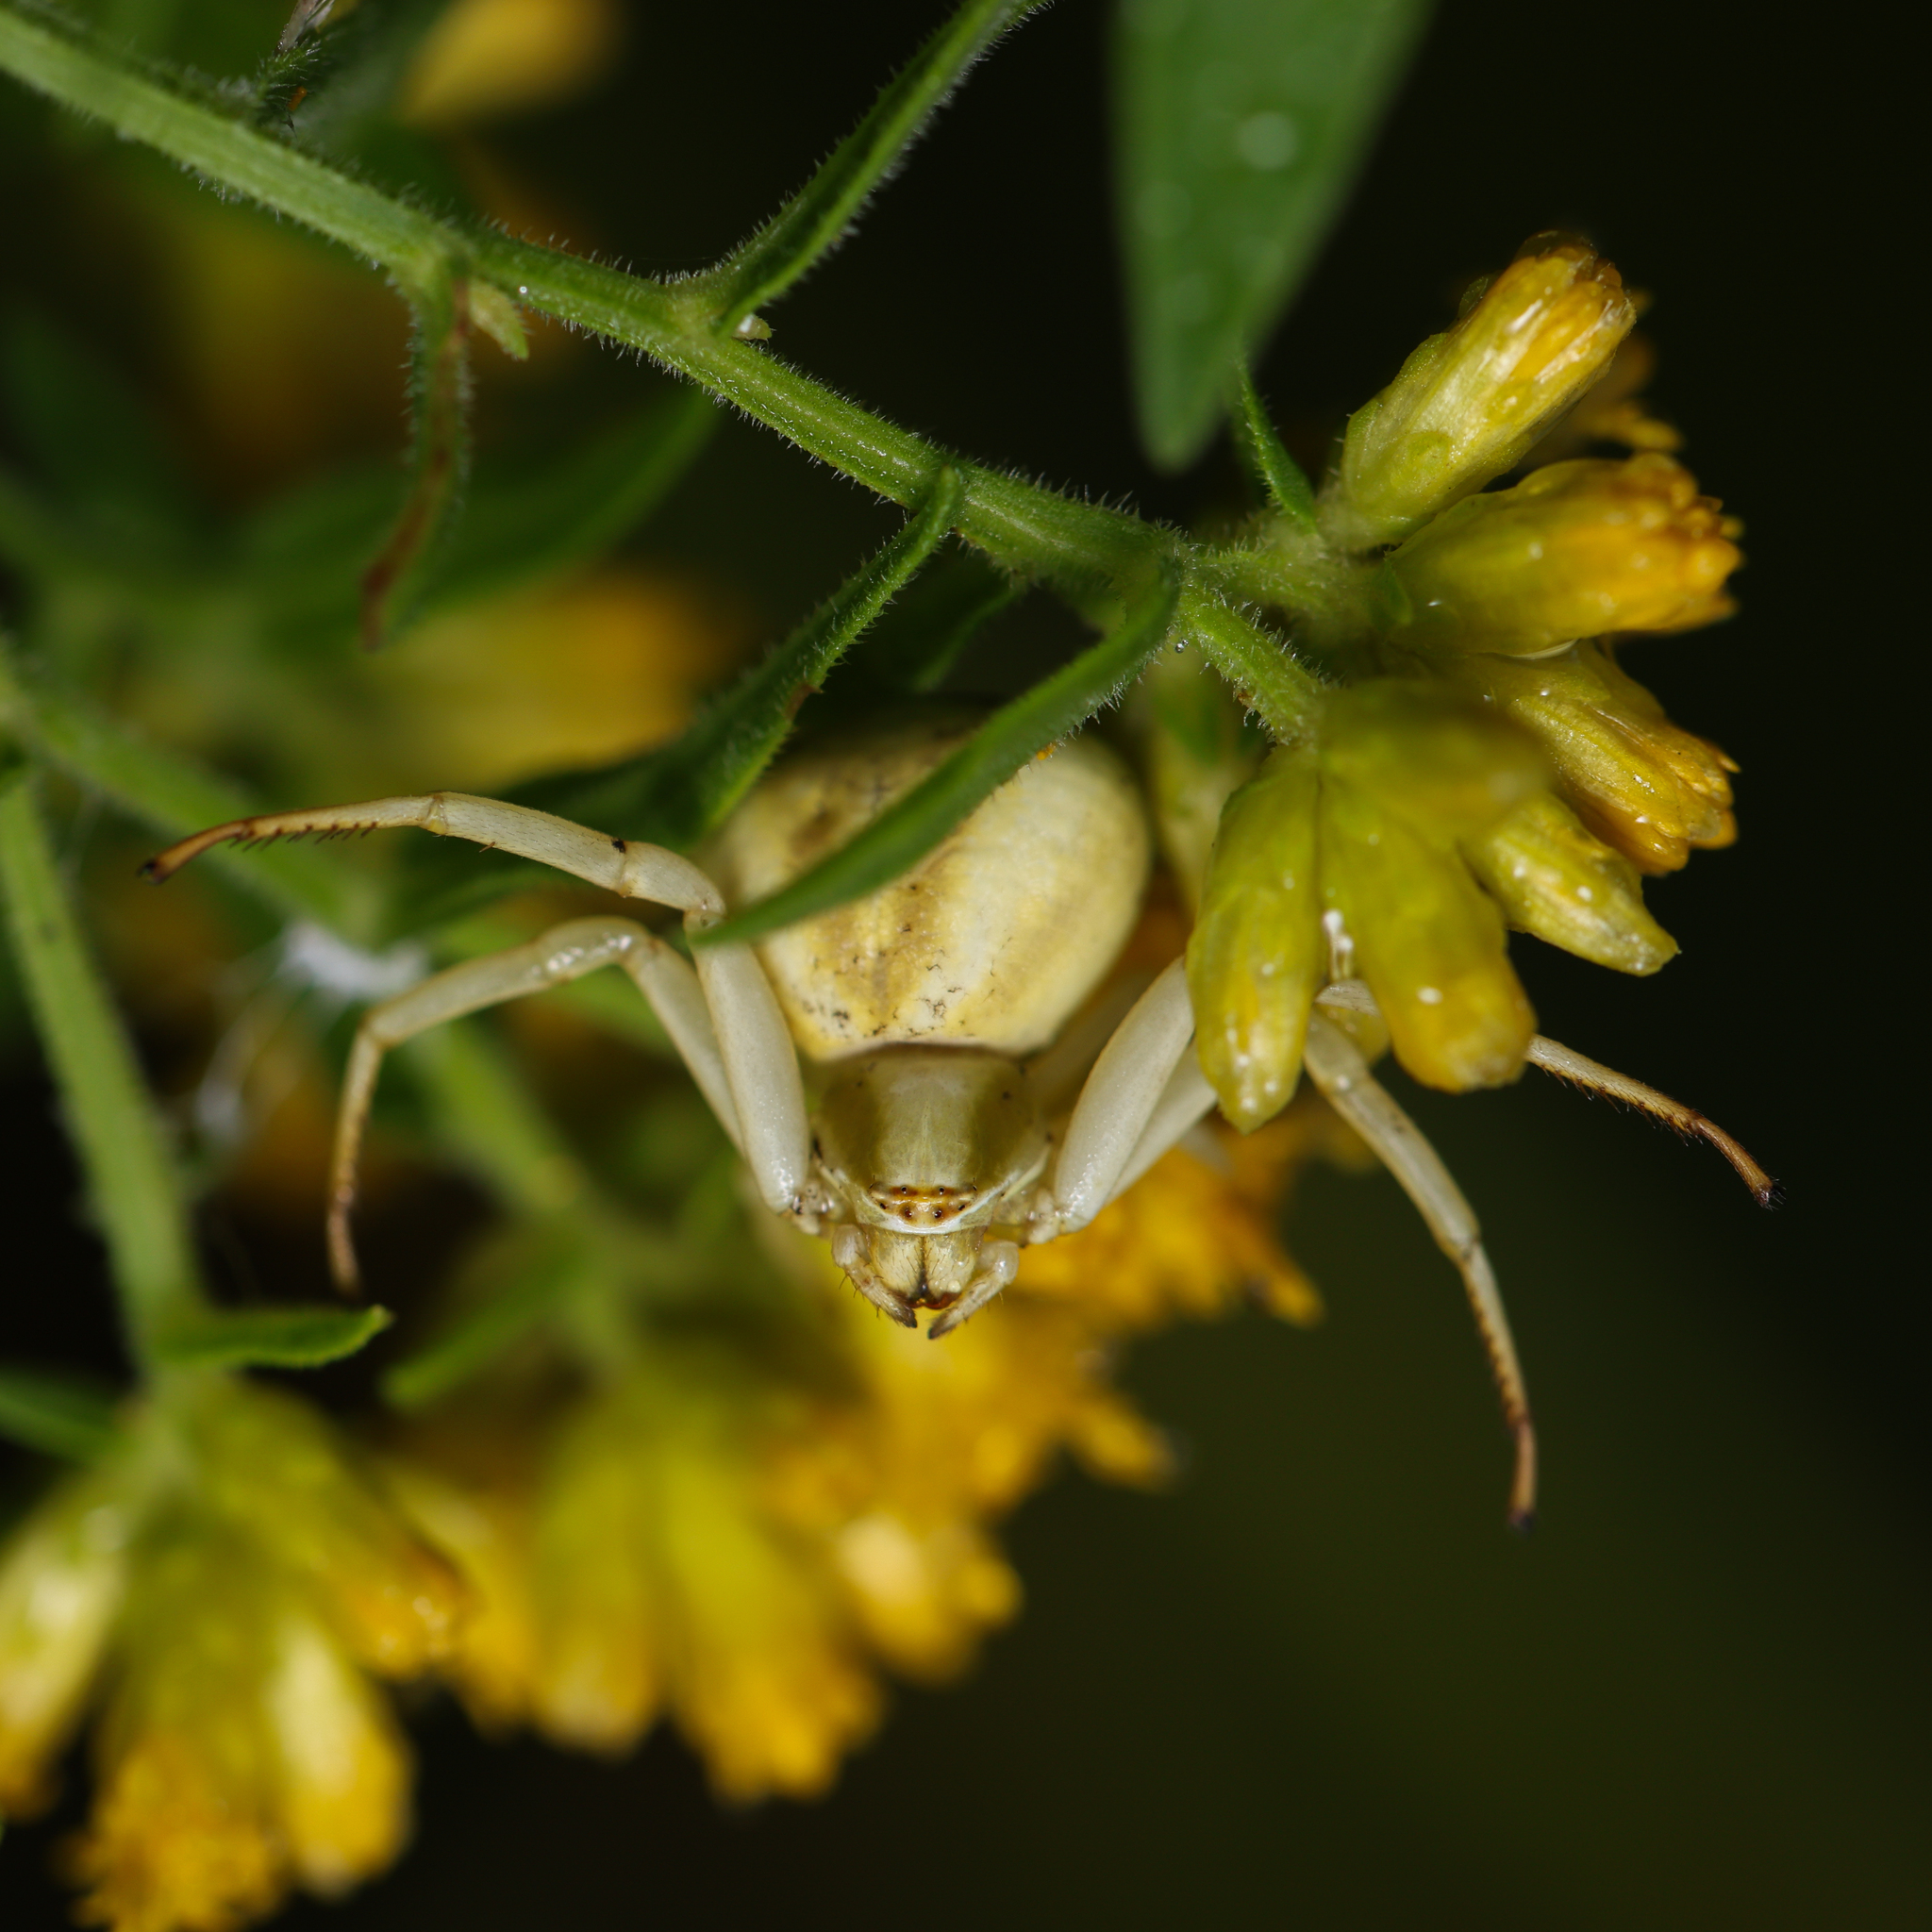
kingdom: Animalia
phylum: Arthropoda
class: Arachnida
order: Araneae
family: Thomisidae
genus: Misumenoides
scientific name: Misumenoides formosipes
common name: White-banded crab spider
